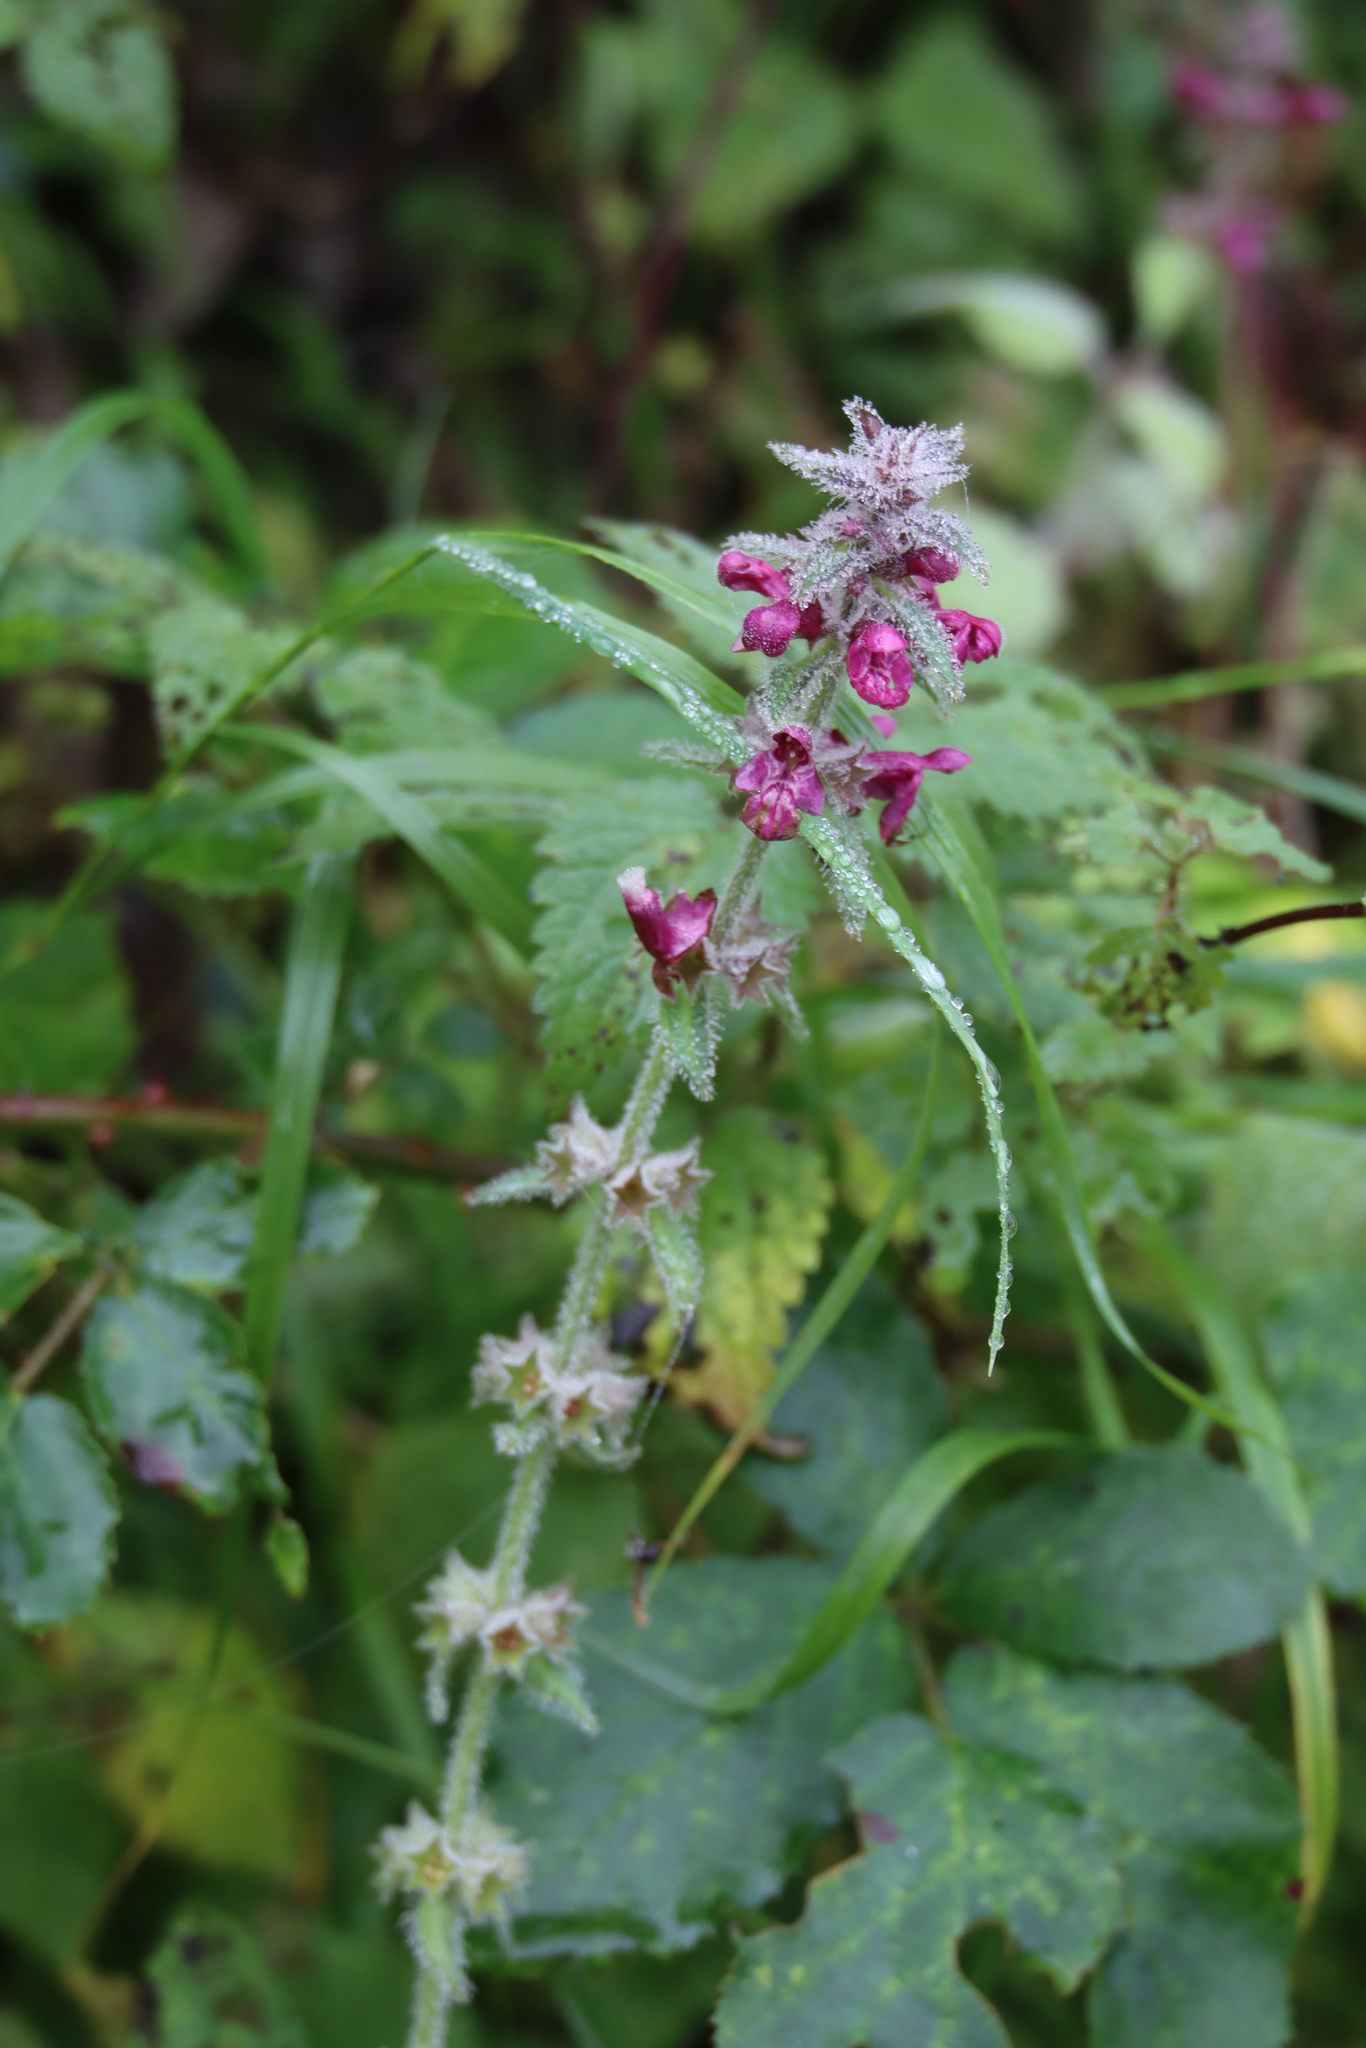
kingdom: Plantae
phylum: Tracheophyta
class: Magnoliopsida
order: Lamiales
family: Lamiaceae
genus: Stachys
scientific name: Stachys sylvatica
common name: Hedge woundwort
